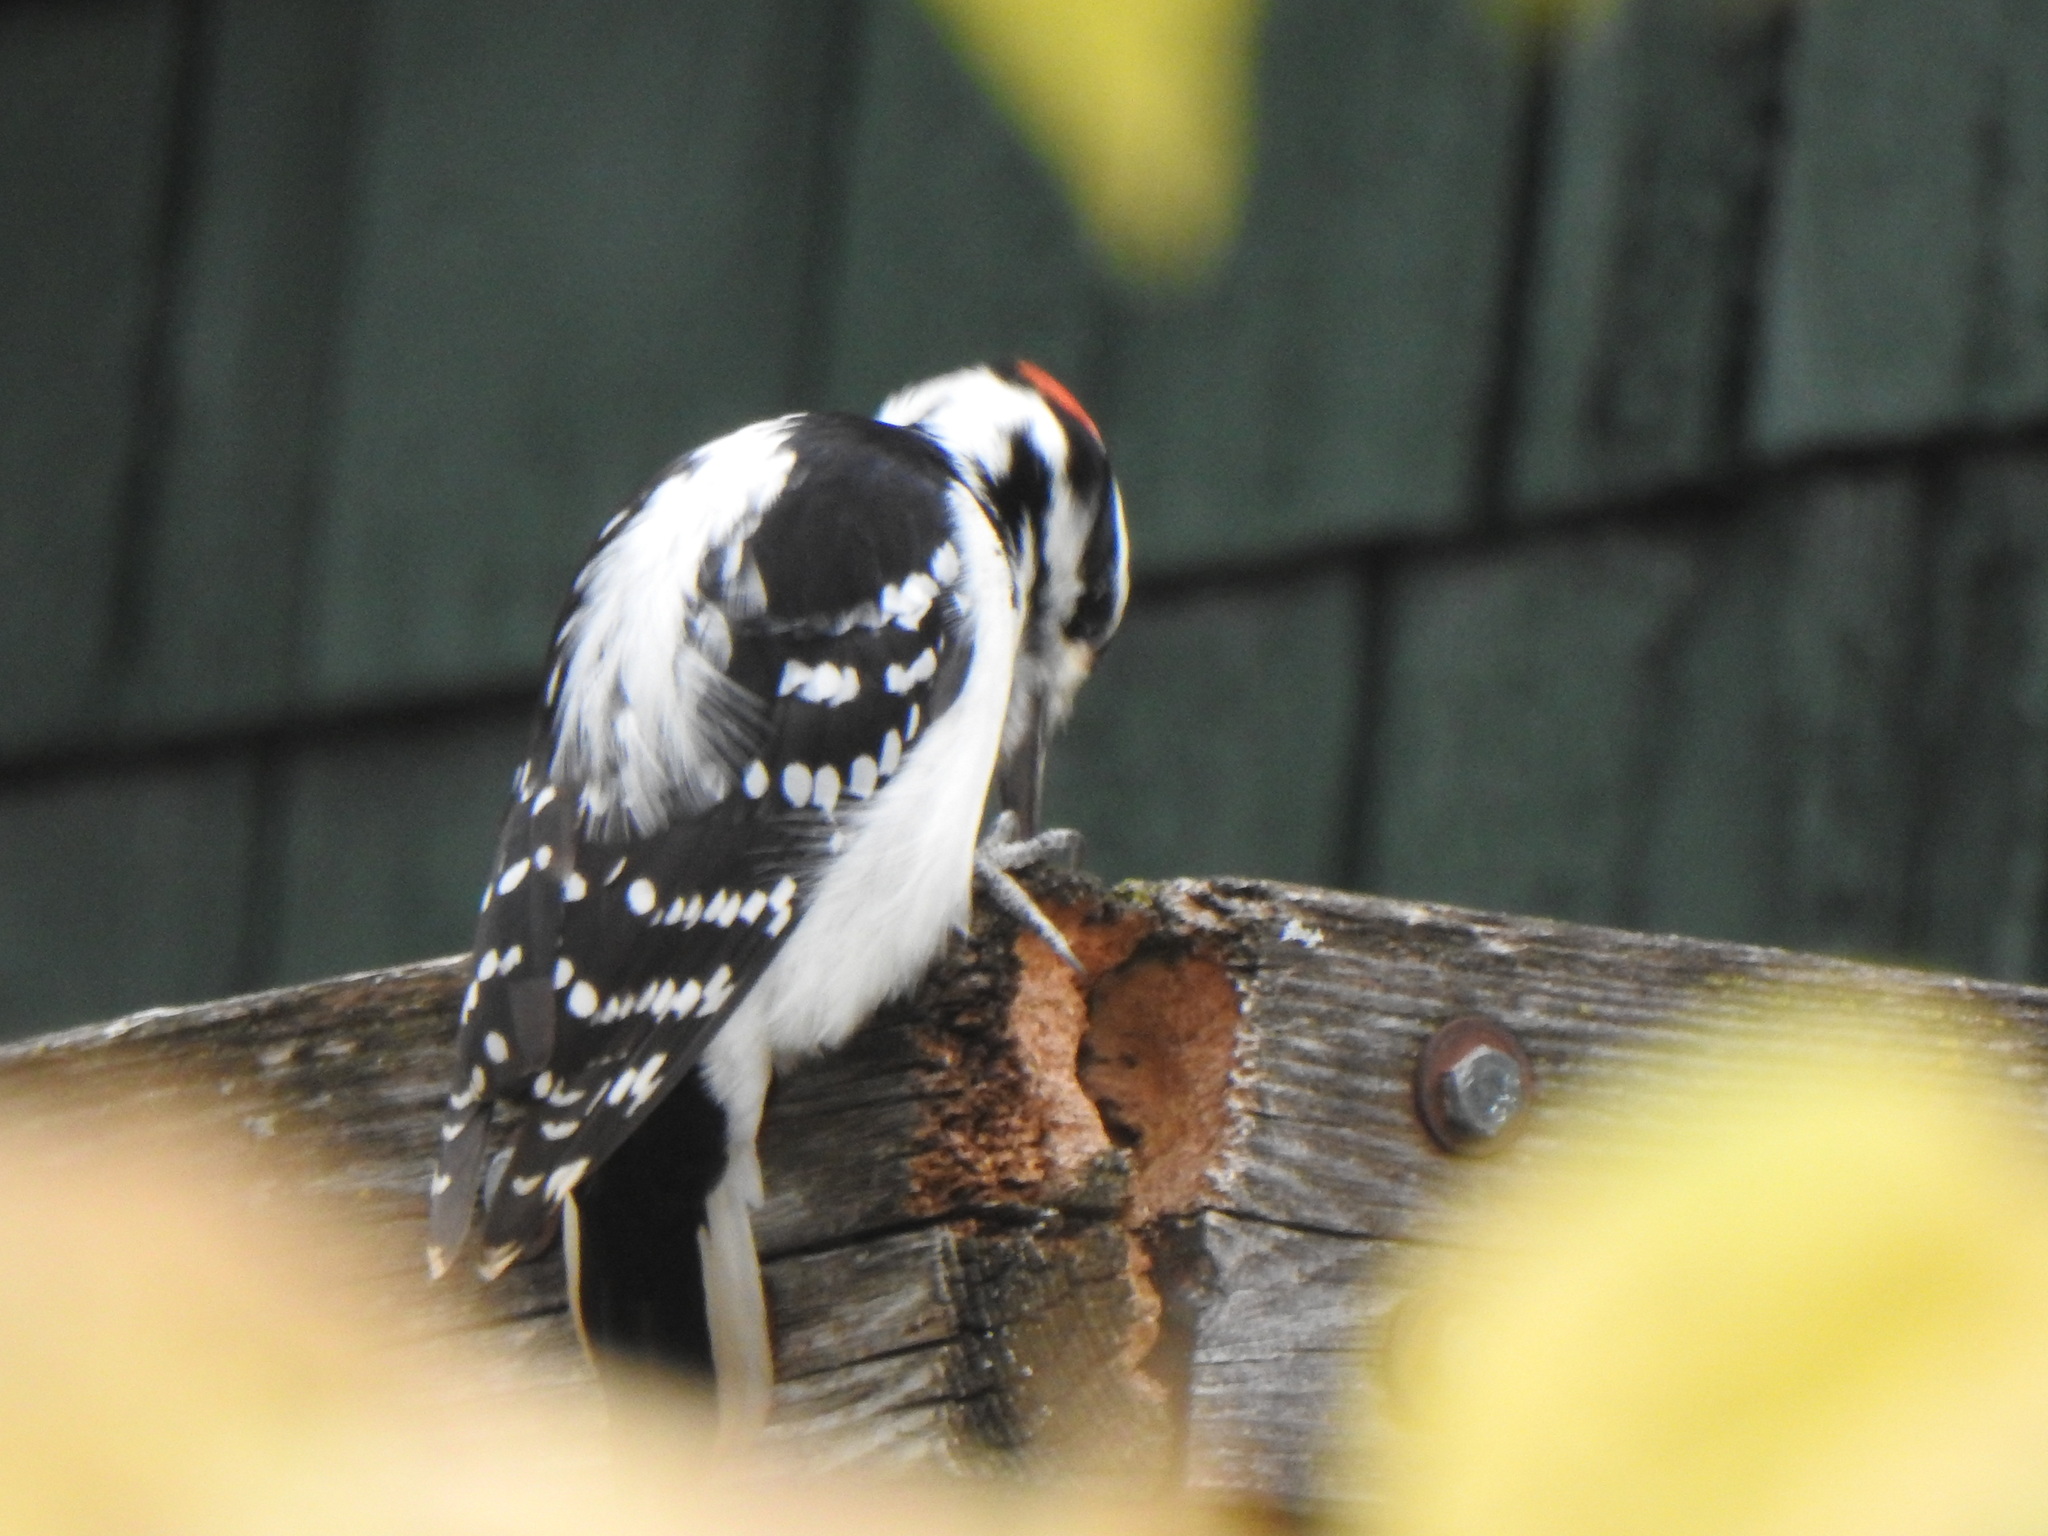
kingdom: Animalia
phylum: Chordata
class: Aves
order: Piciformes
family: Picidae
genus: Leuconotopicus
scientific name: Leuconotopicus villosus
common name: Hairy woodpecker
